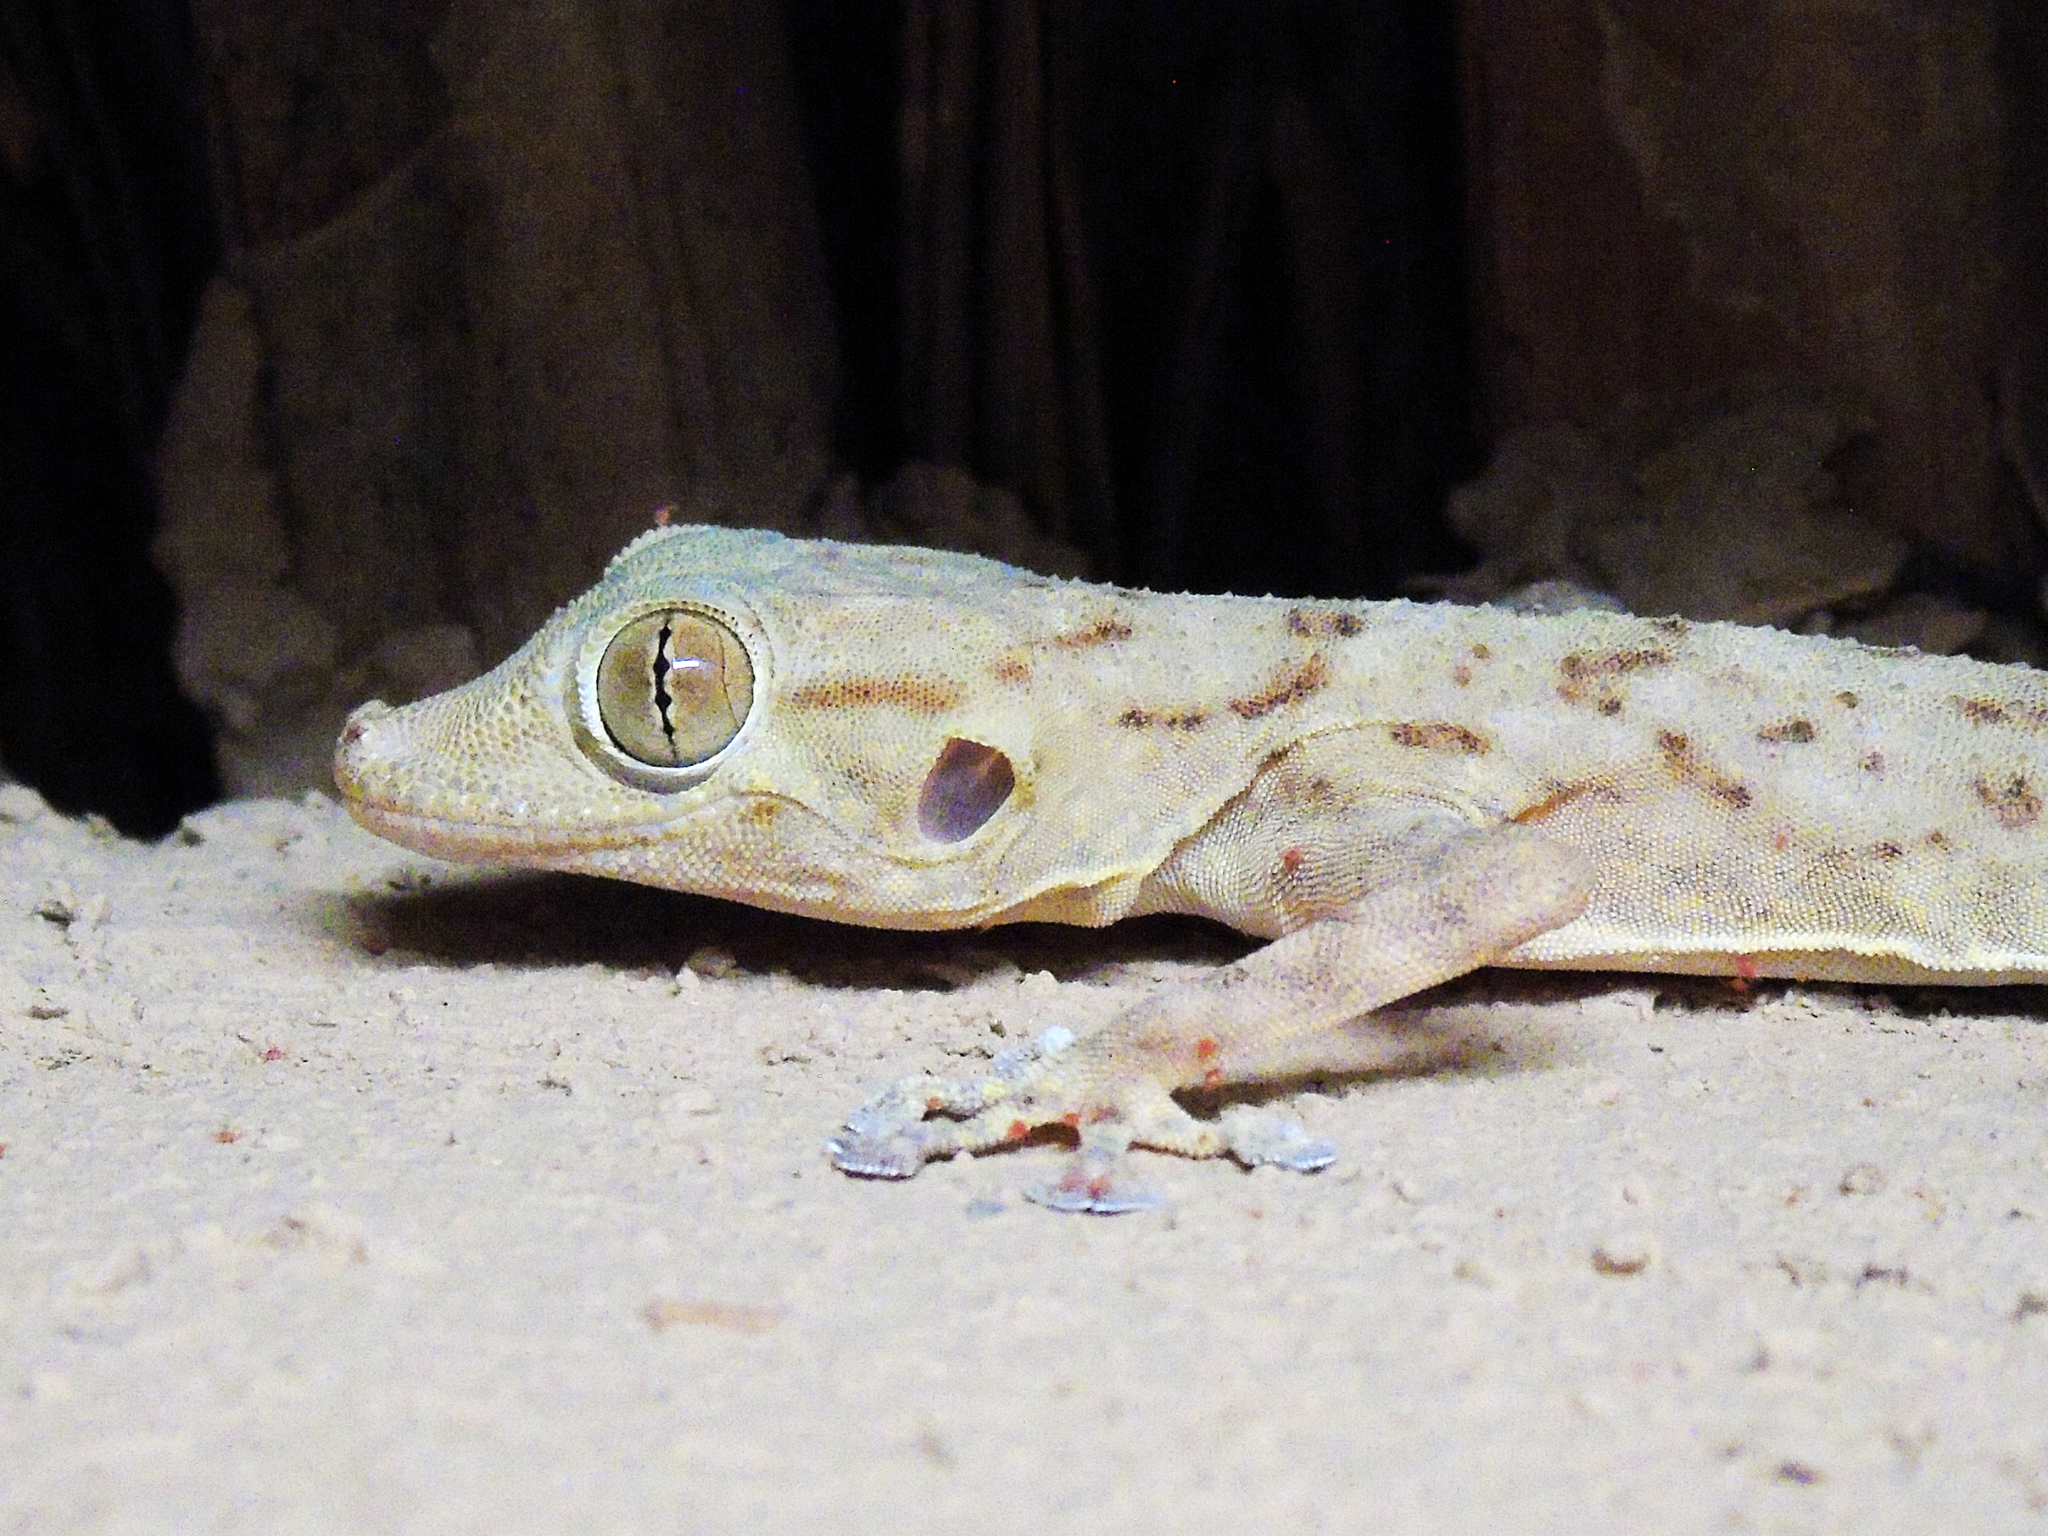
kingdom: Animalia
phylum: Chordata
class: Squamata
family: Phyllodactylidae
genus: Ptyodactylus
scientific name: Ptyodactylus ruusaljibalicus
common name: Ruus al jibal fan-footed gecko
